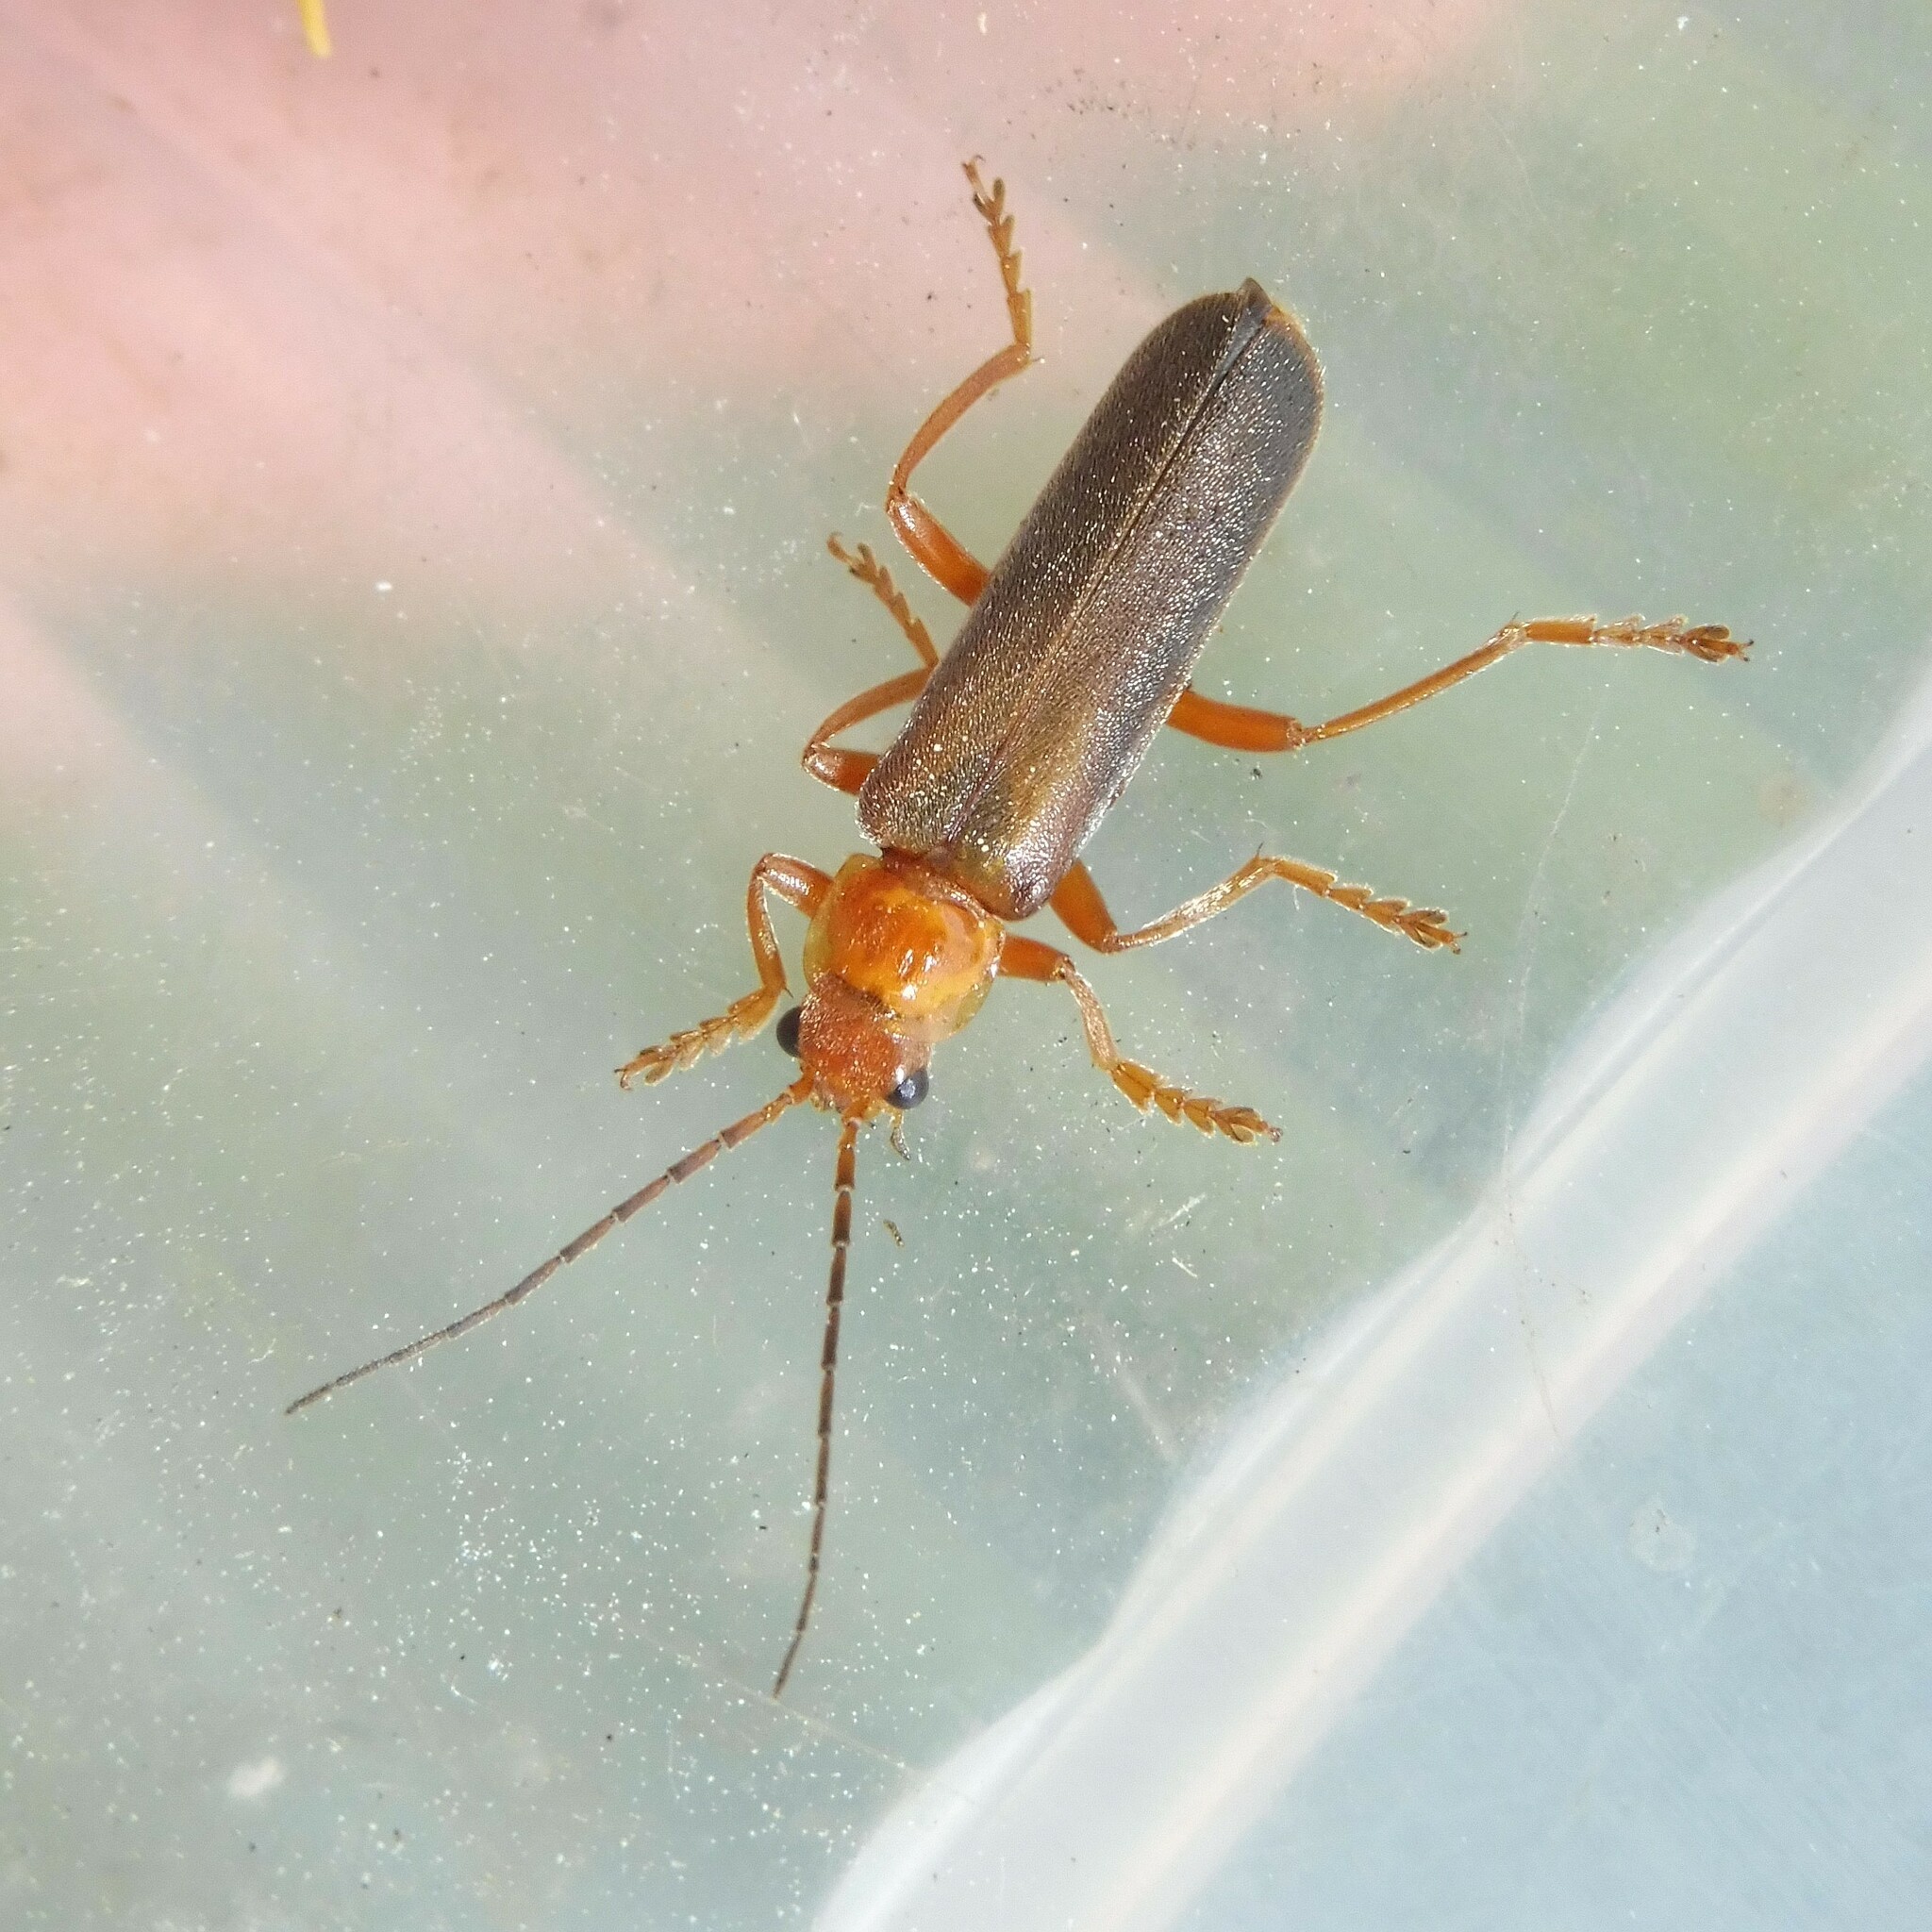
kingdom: Animalia
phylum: Arthropoda
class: Insecta
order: Coleoptera
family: Cantharidae
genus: Cantharis
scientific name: Cantharis rufa
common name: Red-spotted soldier beetle
